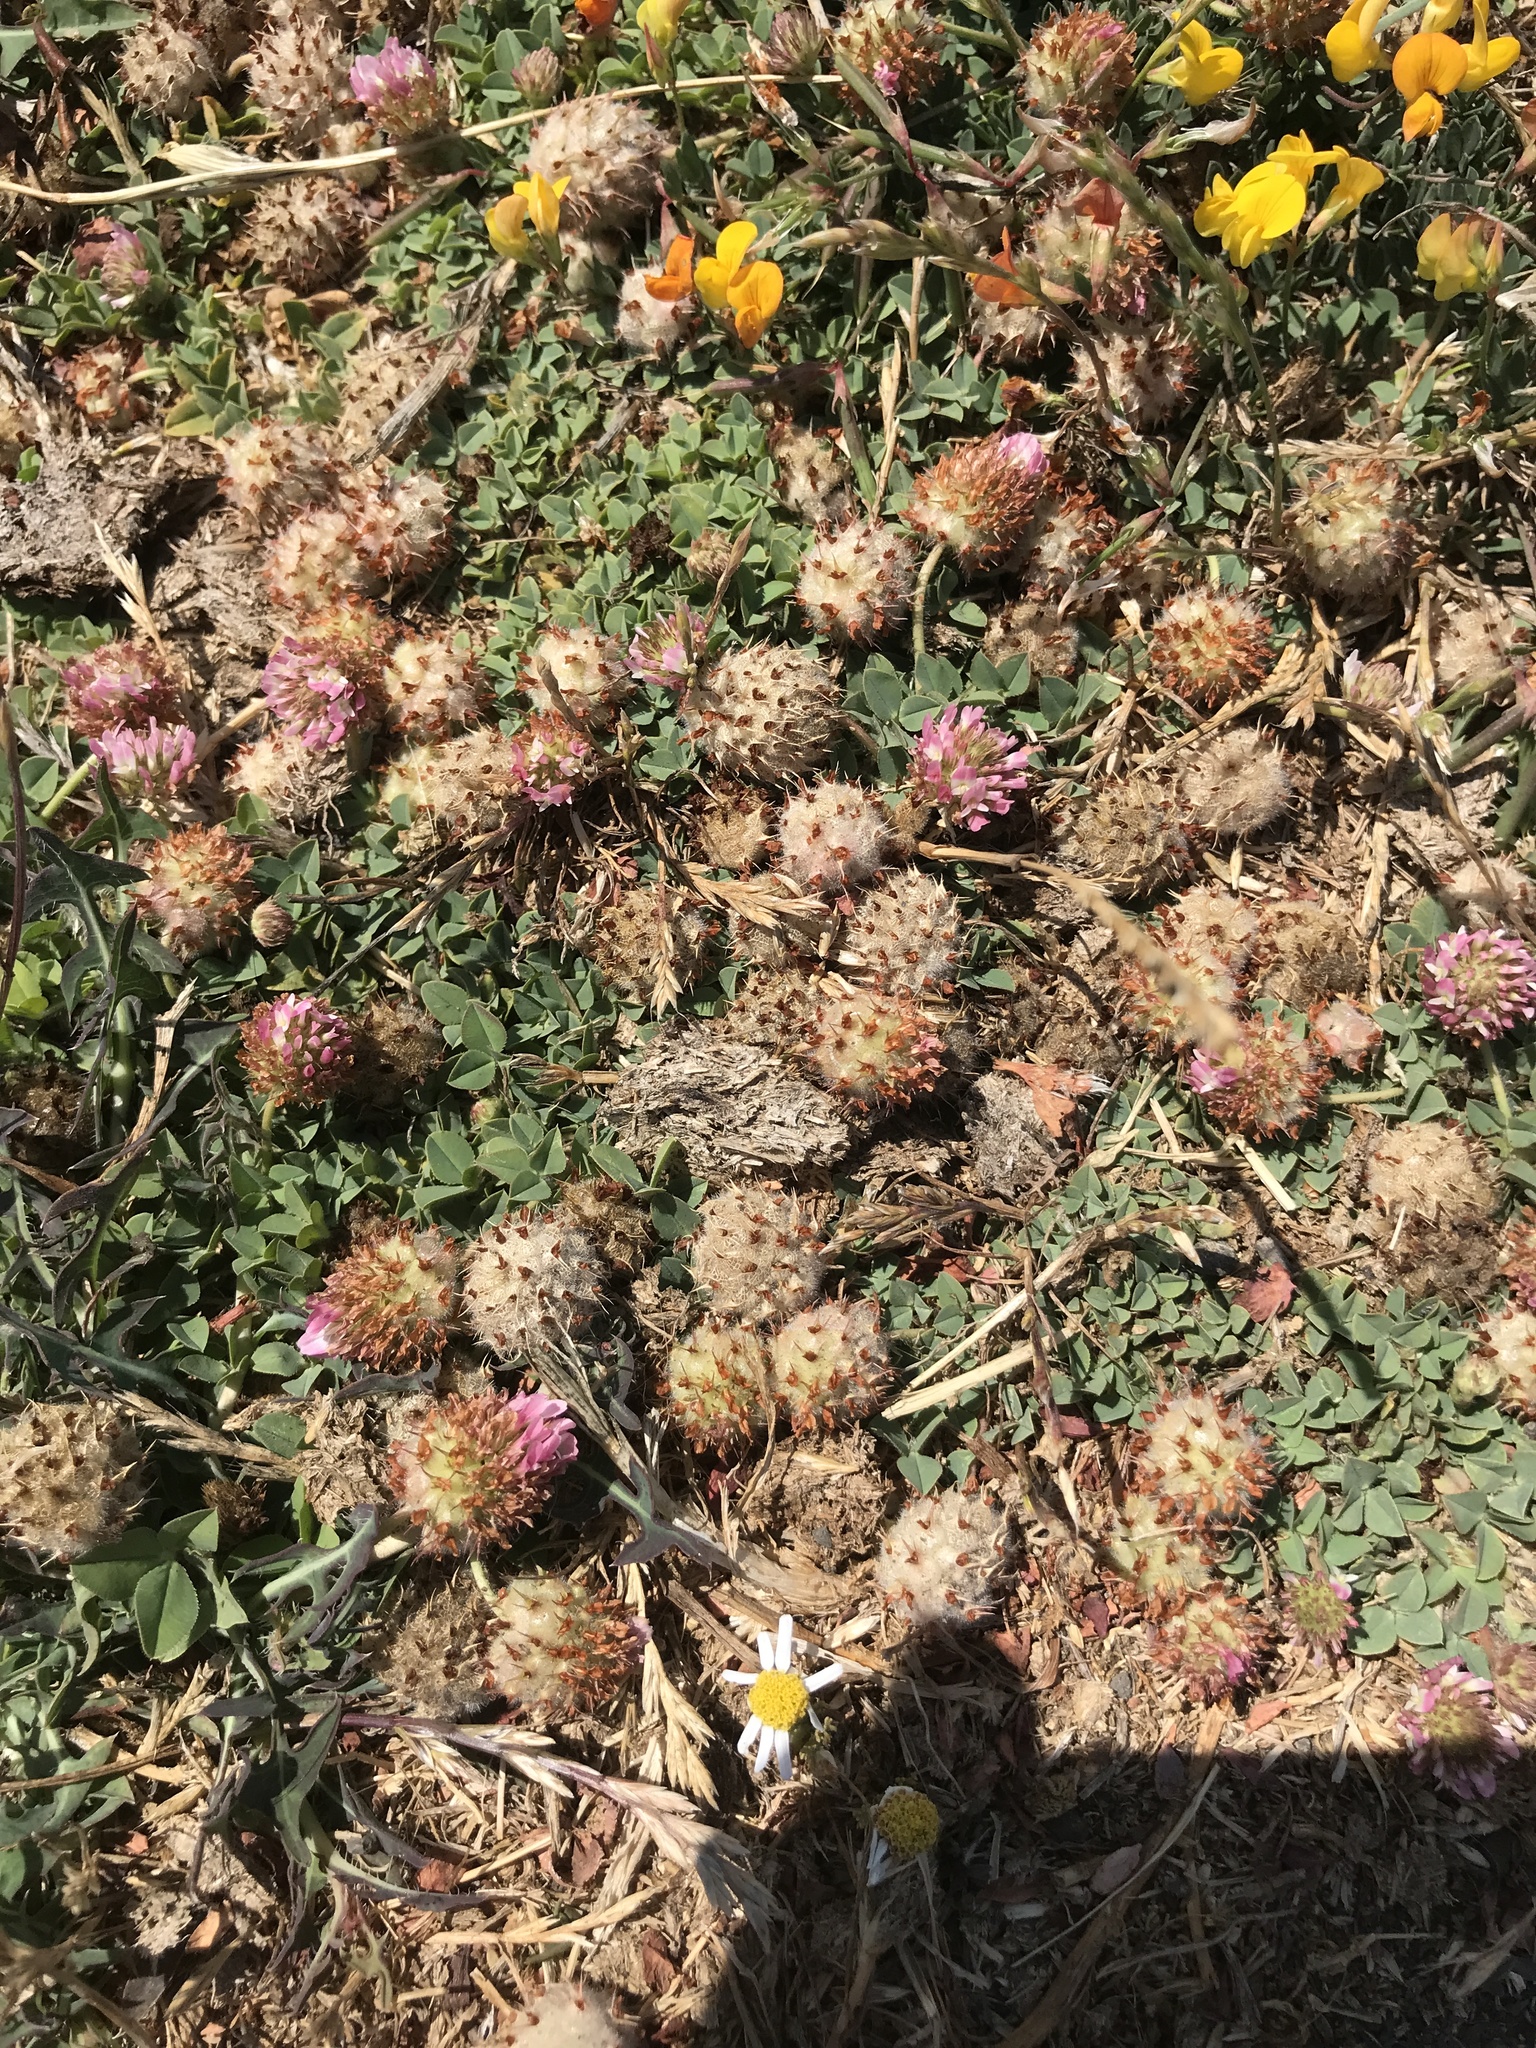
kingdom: Plantae
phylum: Tracheophyta
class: Magnoliopsida
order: Fabales
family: Fabaceae
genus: Trifolium
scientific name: Trifolium fragiferum
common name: Strawberry clover
